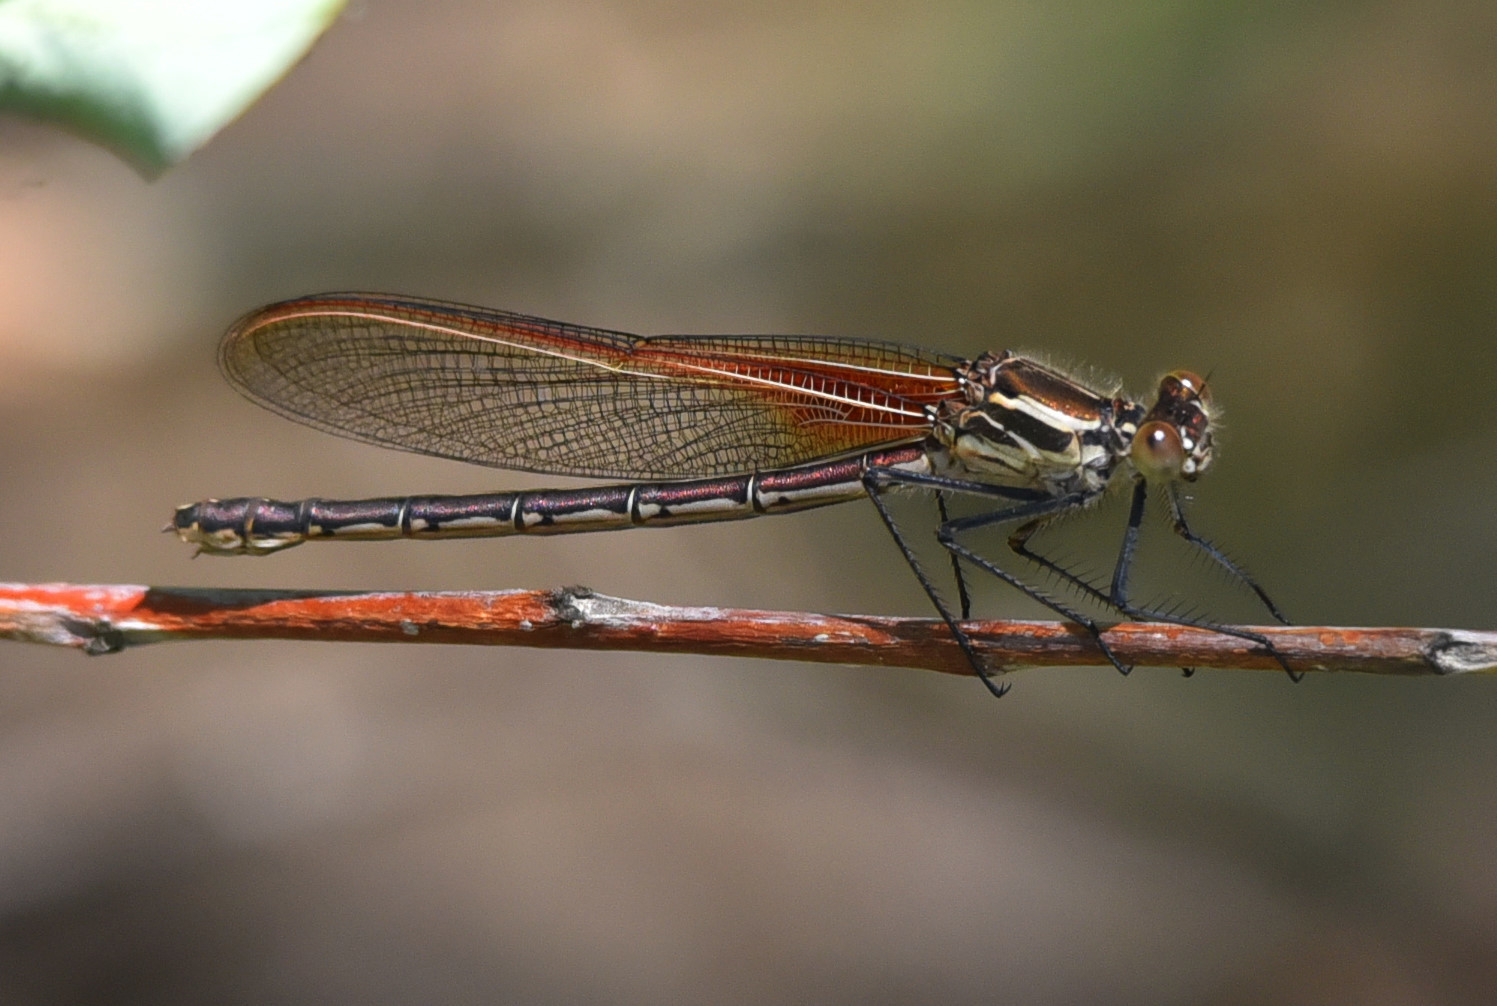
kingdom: Animalia
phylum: Arthropoda
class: Insecta
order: Odonata
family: Calopterygidae
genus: Hetaerina
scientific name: Hetaerina americana
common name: American rubyspot
